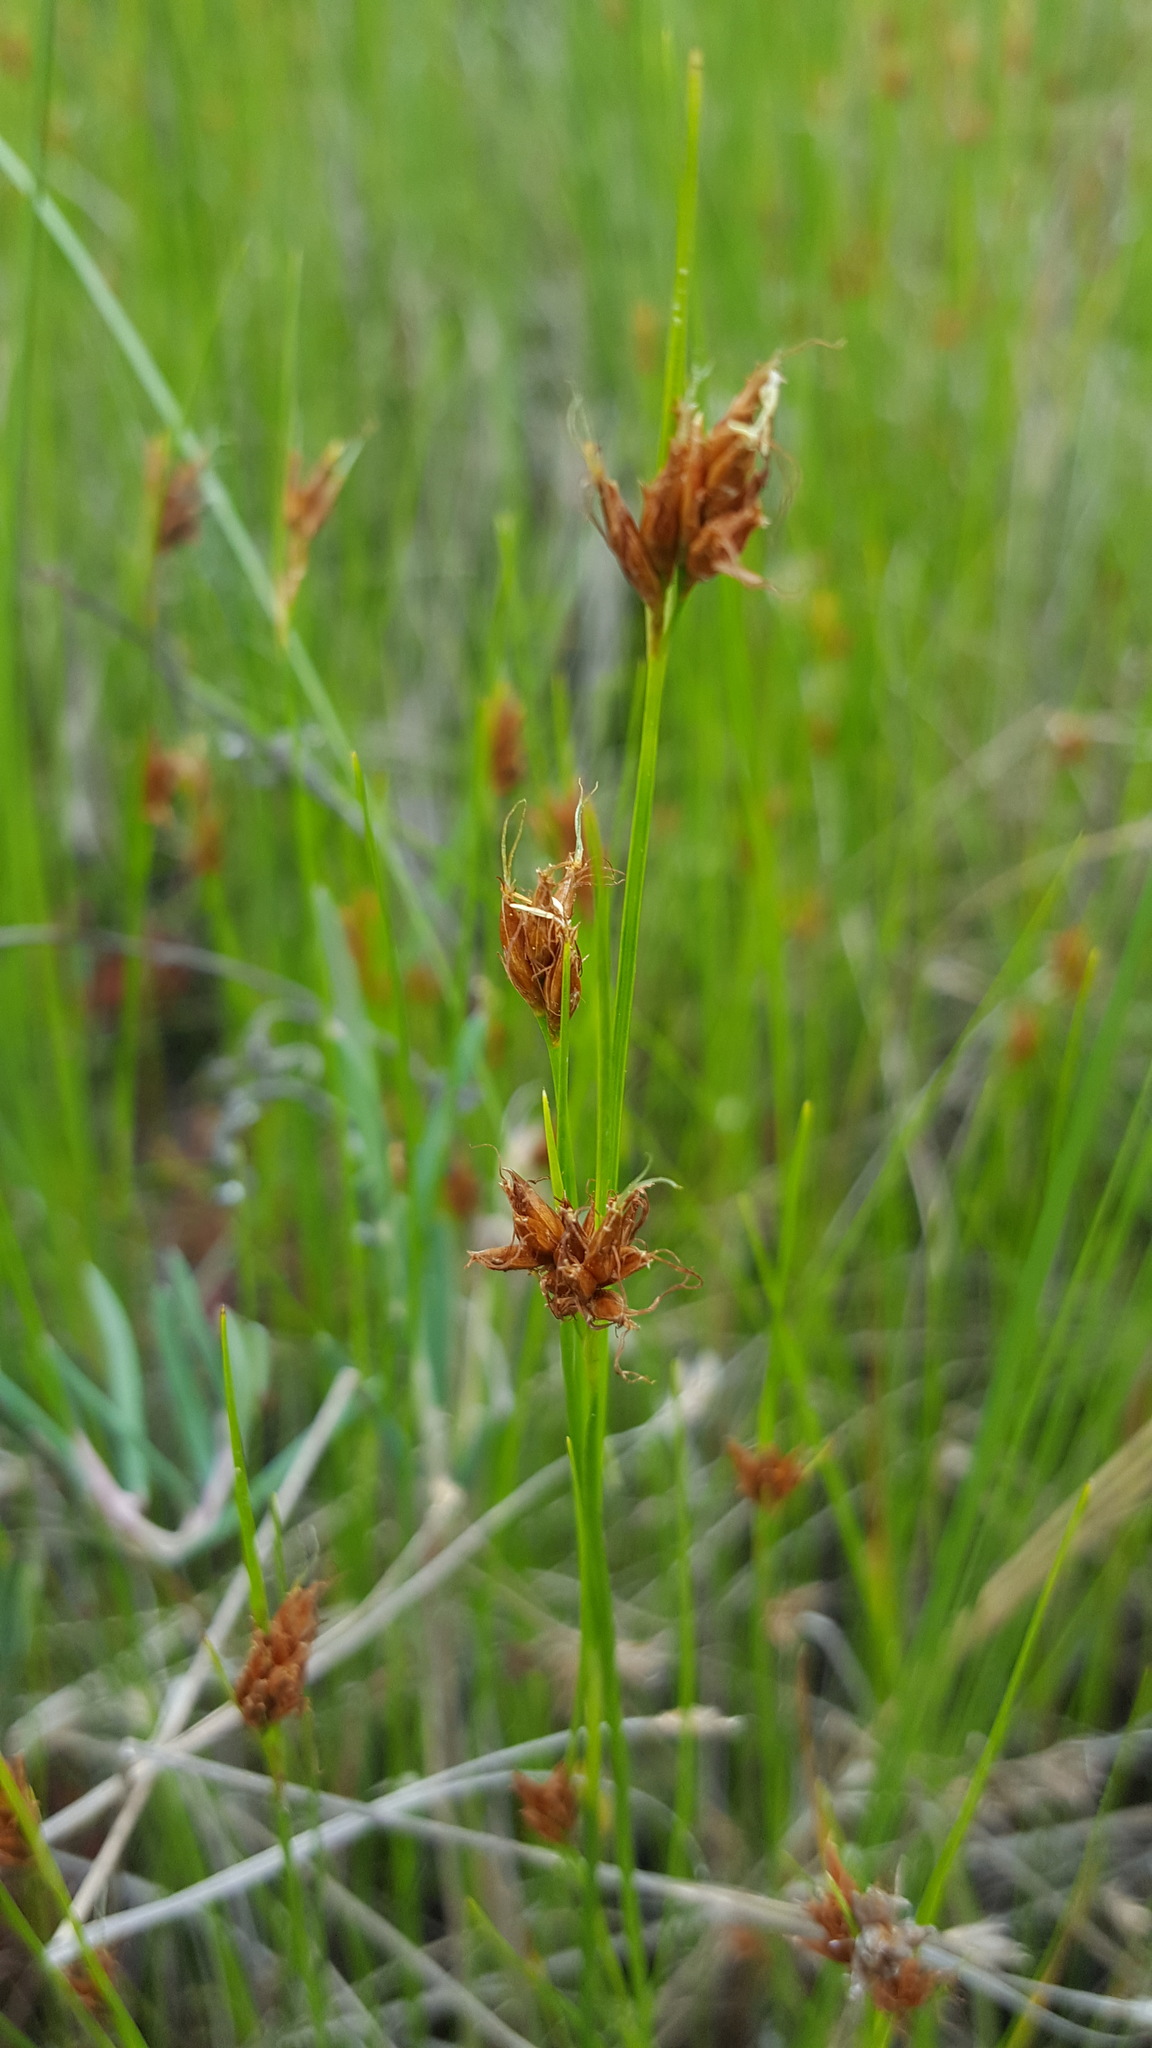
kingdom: Plantae
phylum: Tracheophyta
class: Liliopsida
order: Poales
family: Cyperaceae
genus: Rhynchospora
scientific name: Rhynchospora fusca
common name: Brown beak-sedge
